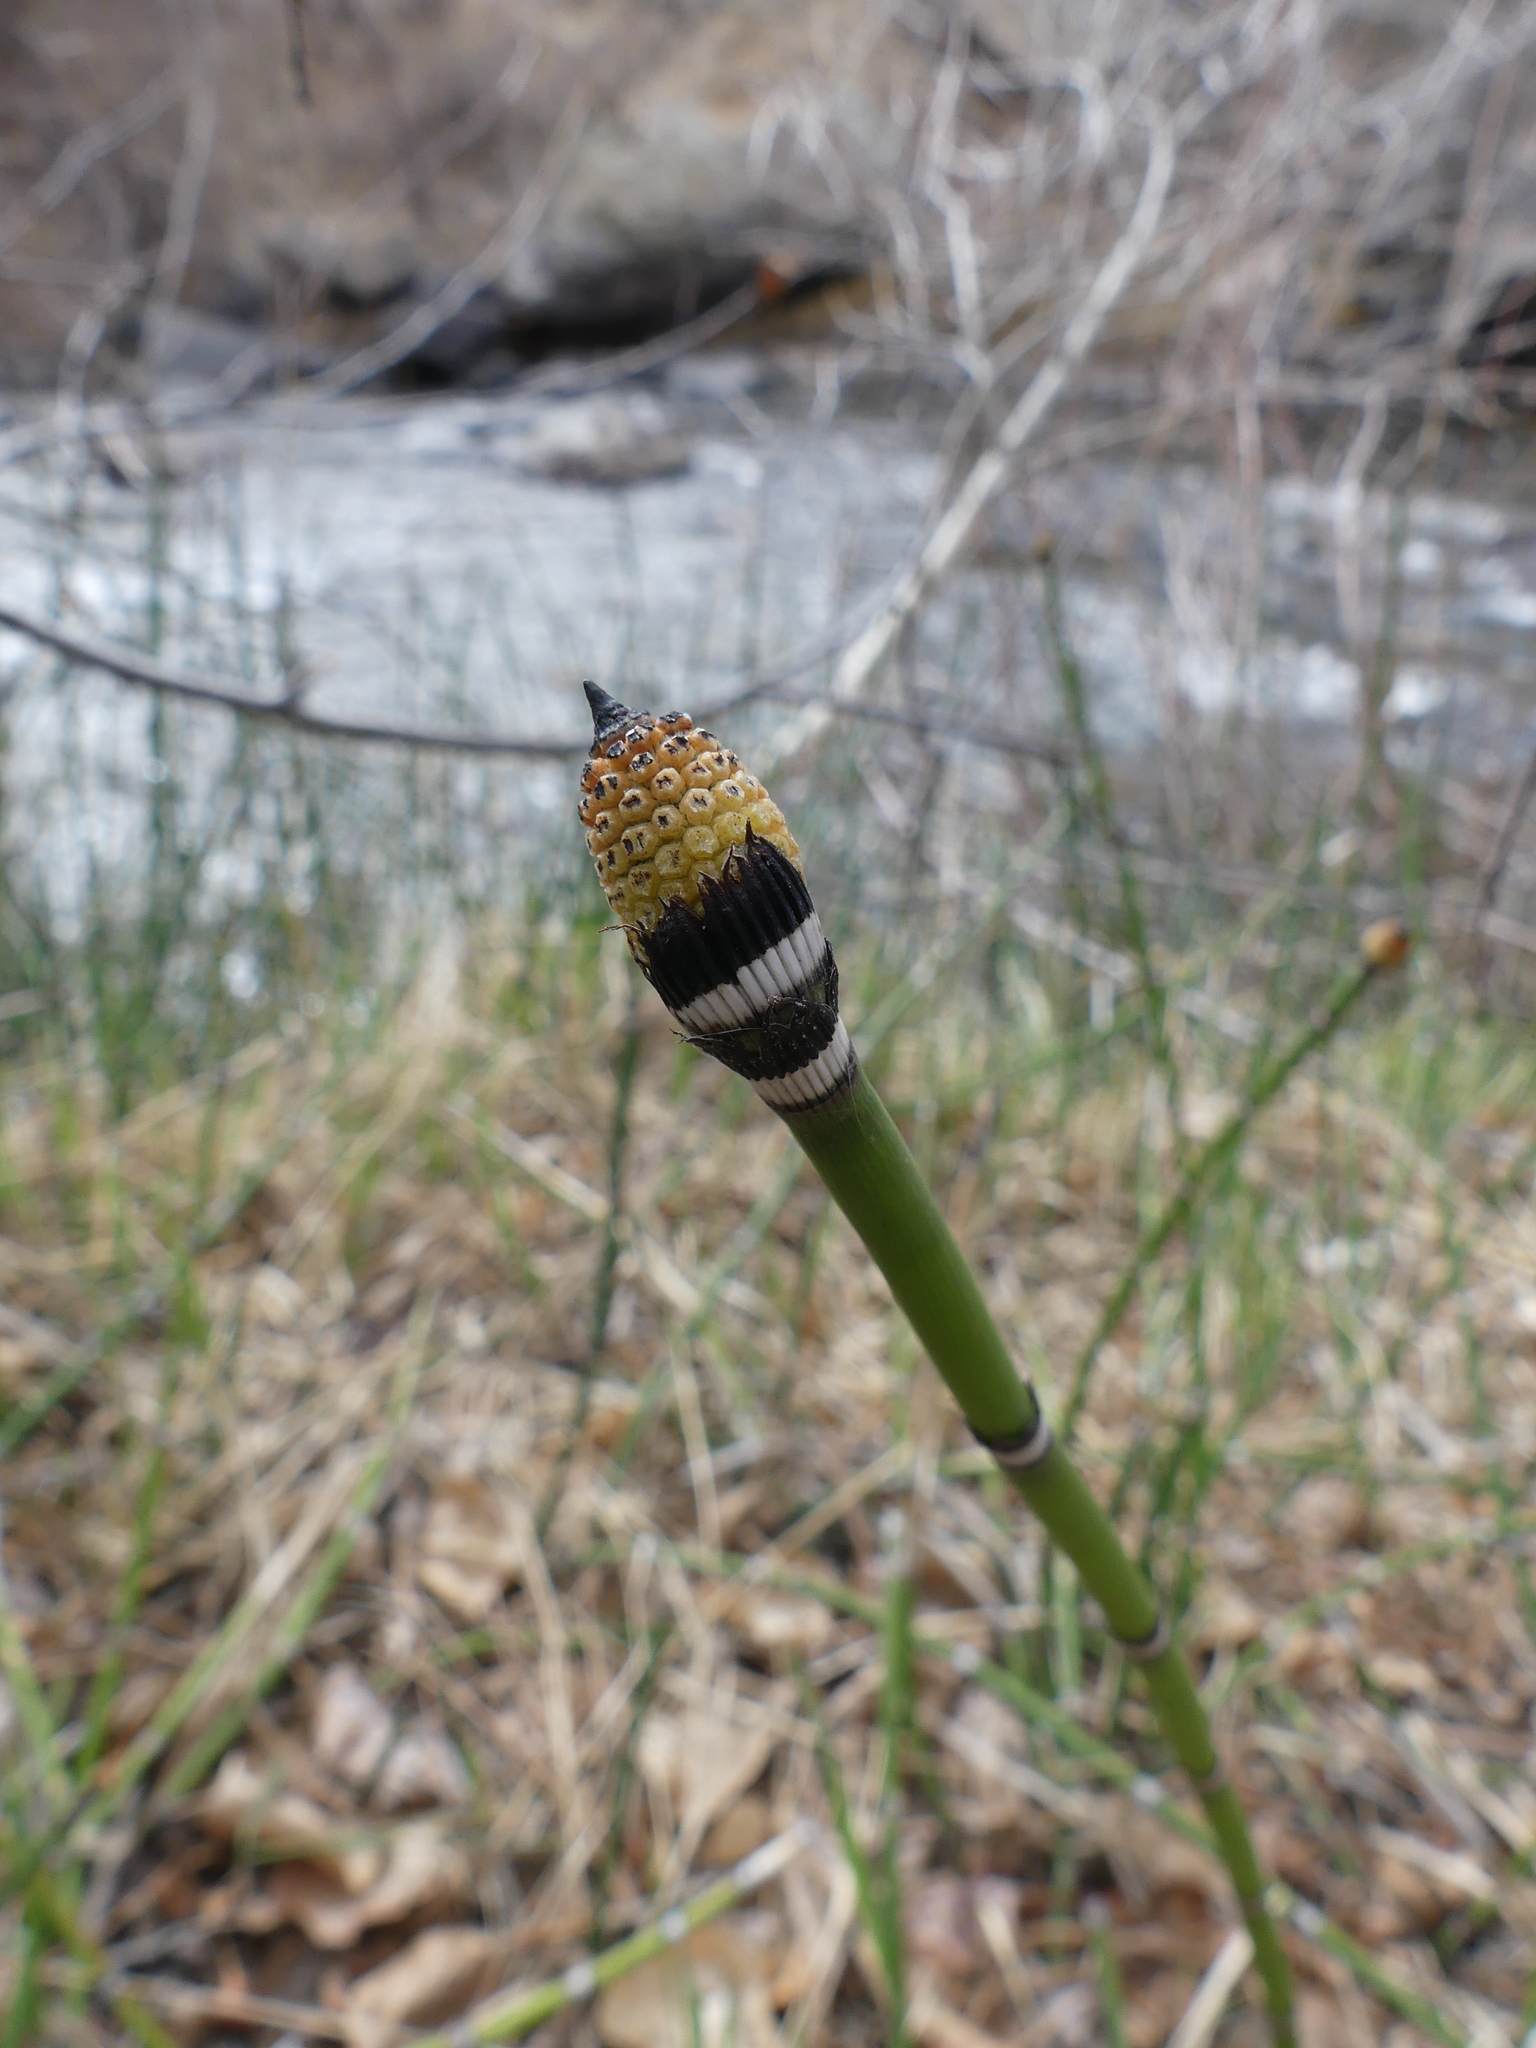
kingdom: Plantae
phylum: Tracheophyta
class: Polypodiopsida
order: Equisetales
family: Equisetaceae
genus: Equisetum
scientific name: Equisetum hyemale
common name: Rough horsetail
